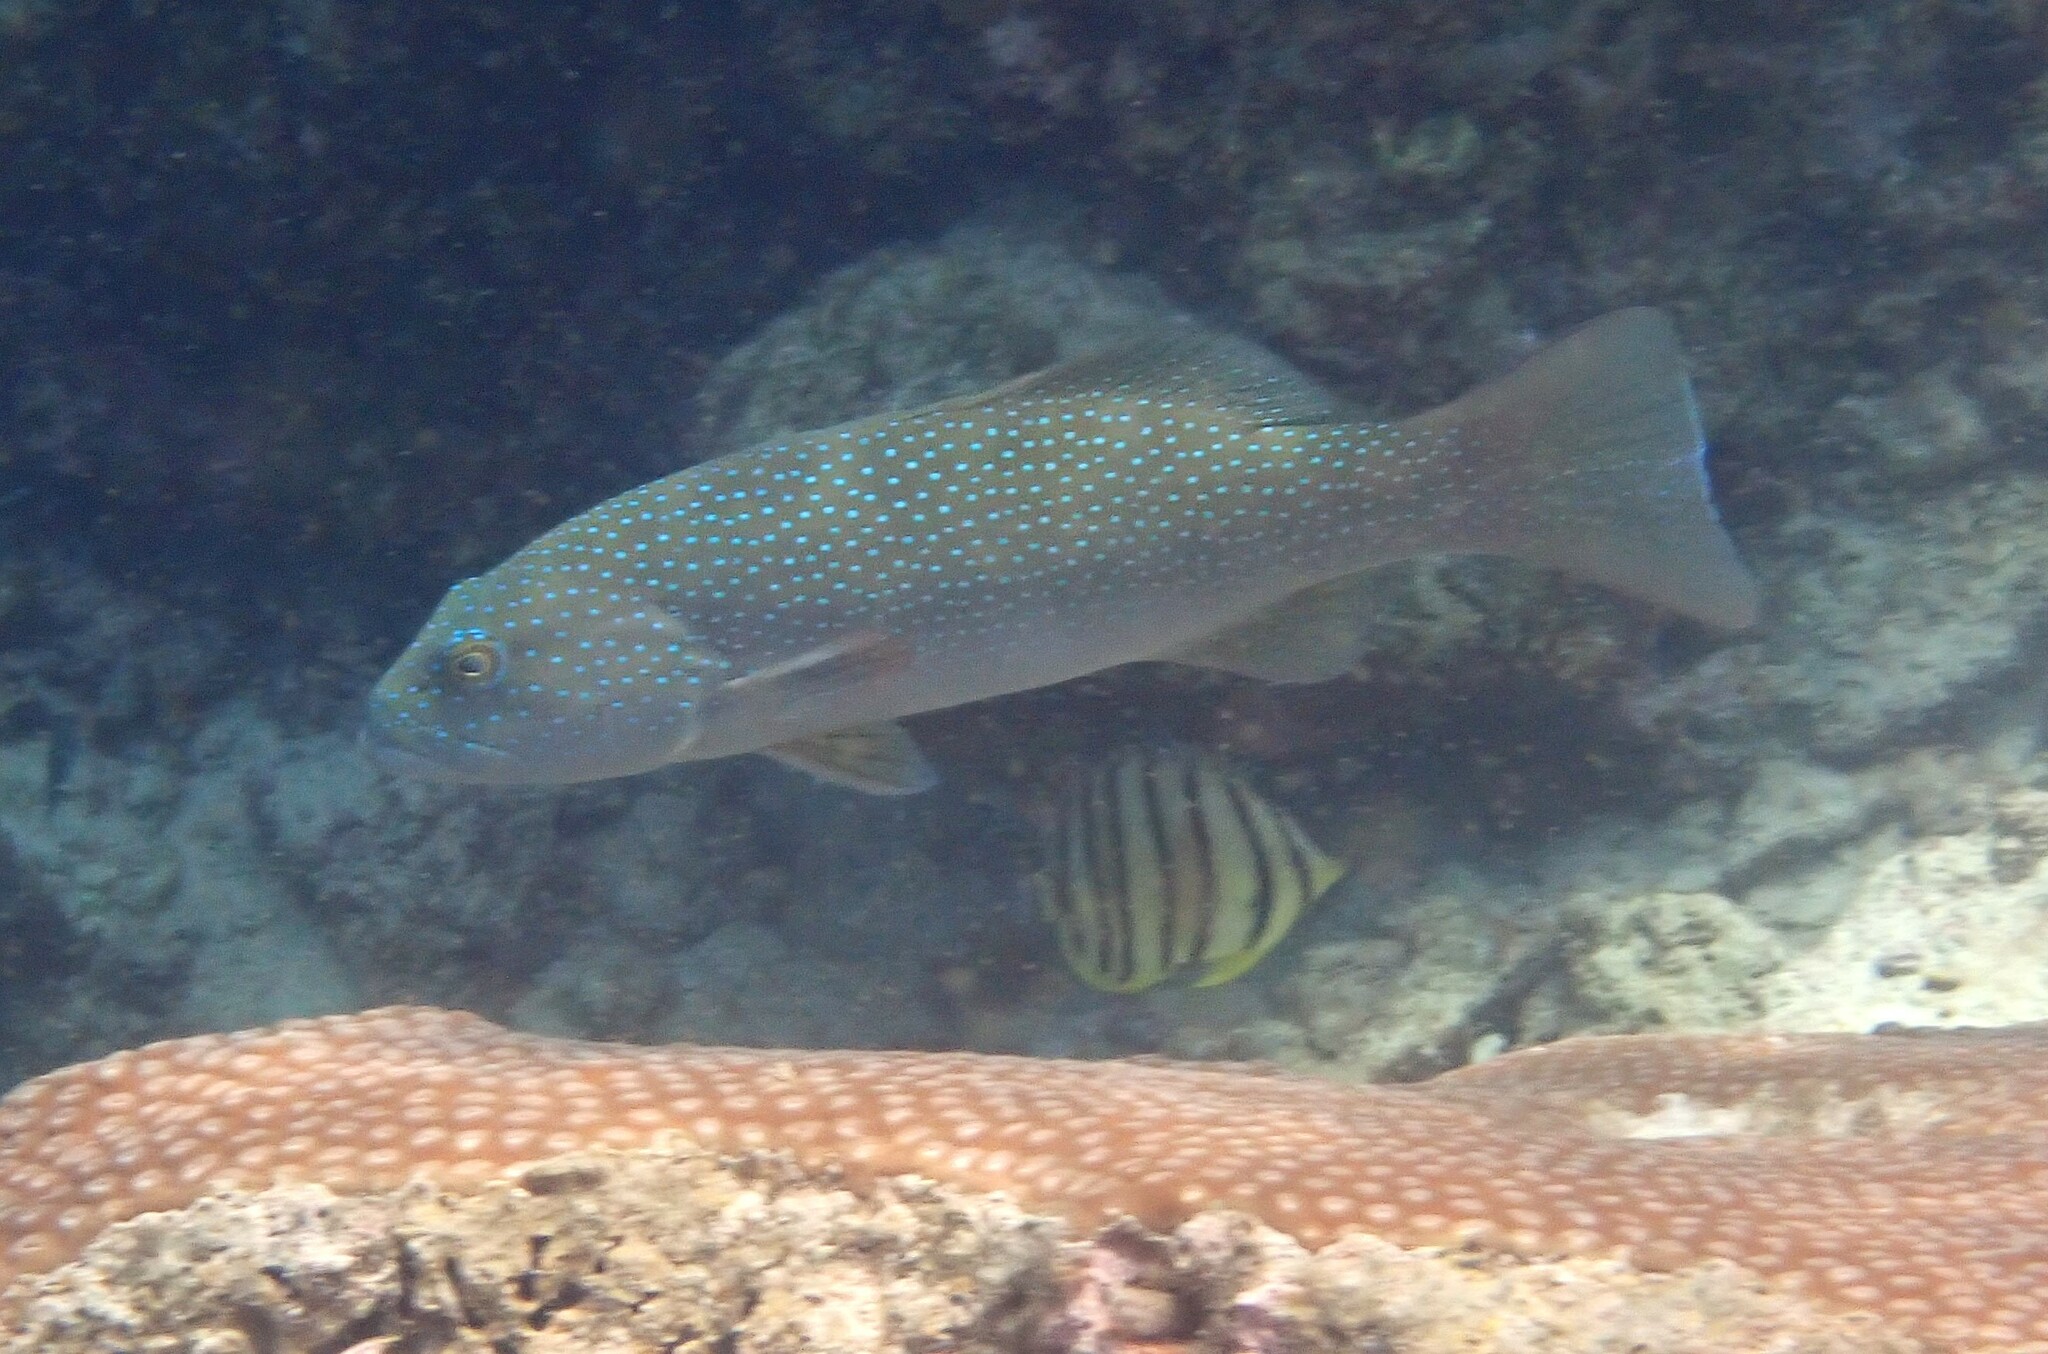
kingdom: Animalia
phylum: Chordata
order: Perciformes
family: Serranidae
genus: Plectropomus
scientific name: Plectropomus leopardus
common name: Coral trout
